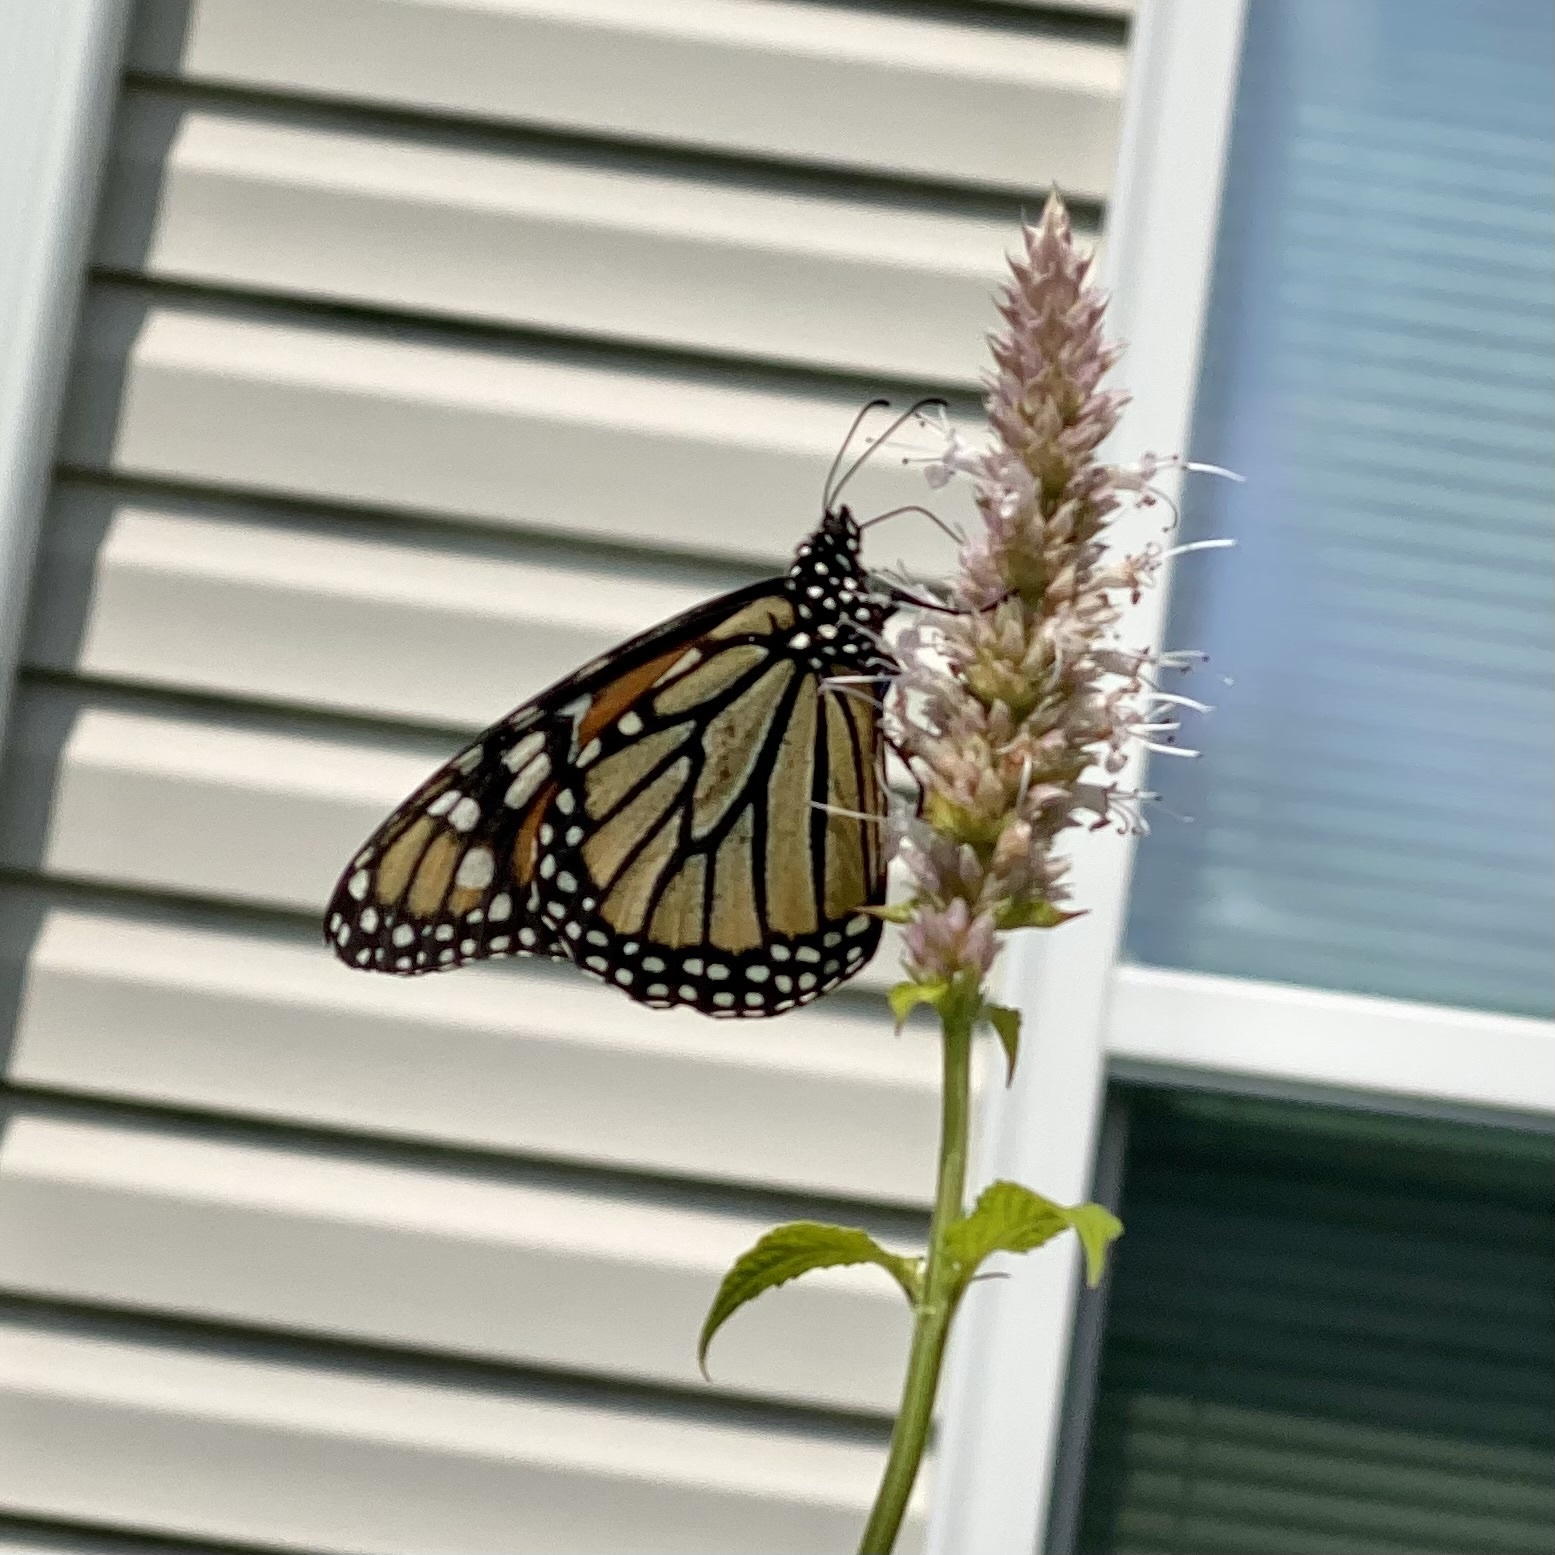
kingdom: Animalia
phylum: Arthropoda
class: Insecta
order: Lepidoptera
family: Nymphalidae
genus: Danaus
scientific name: Danaus plexippus
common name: Monarch
